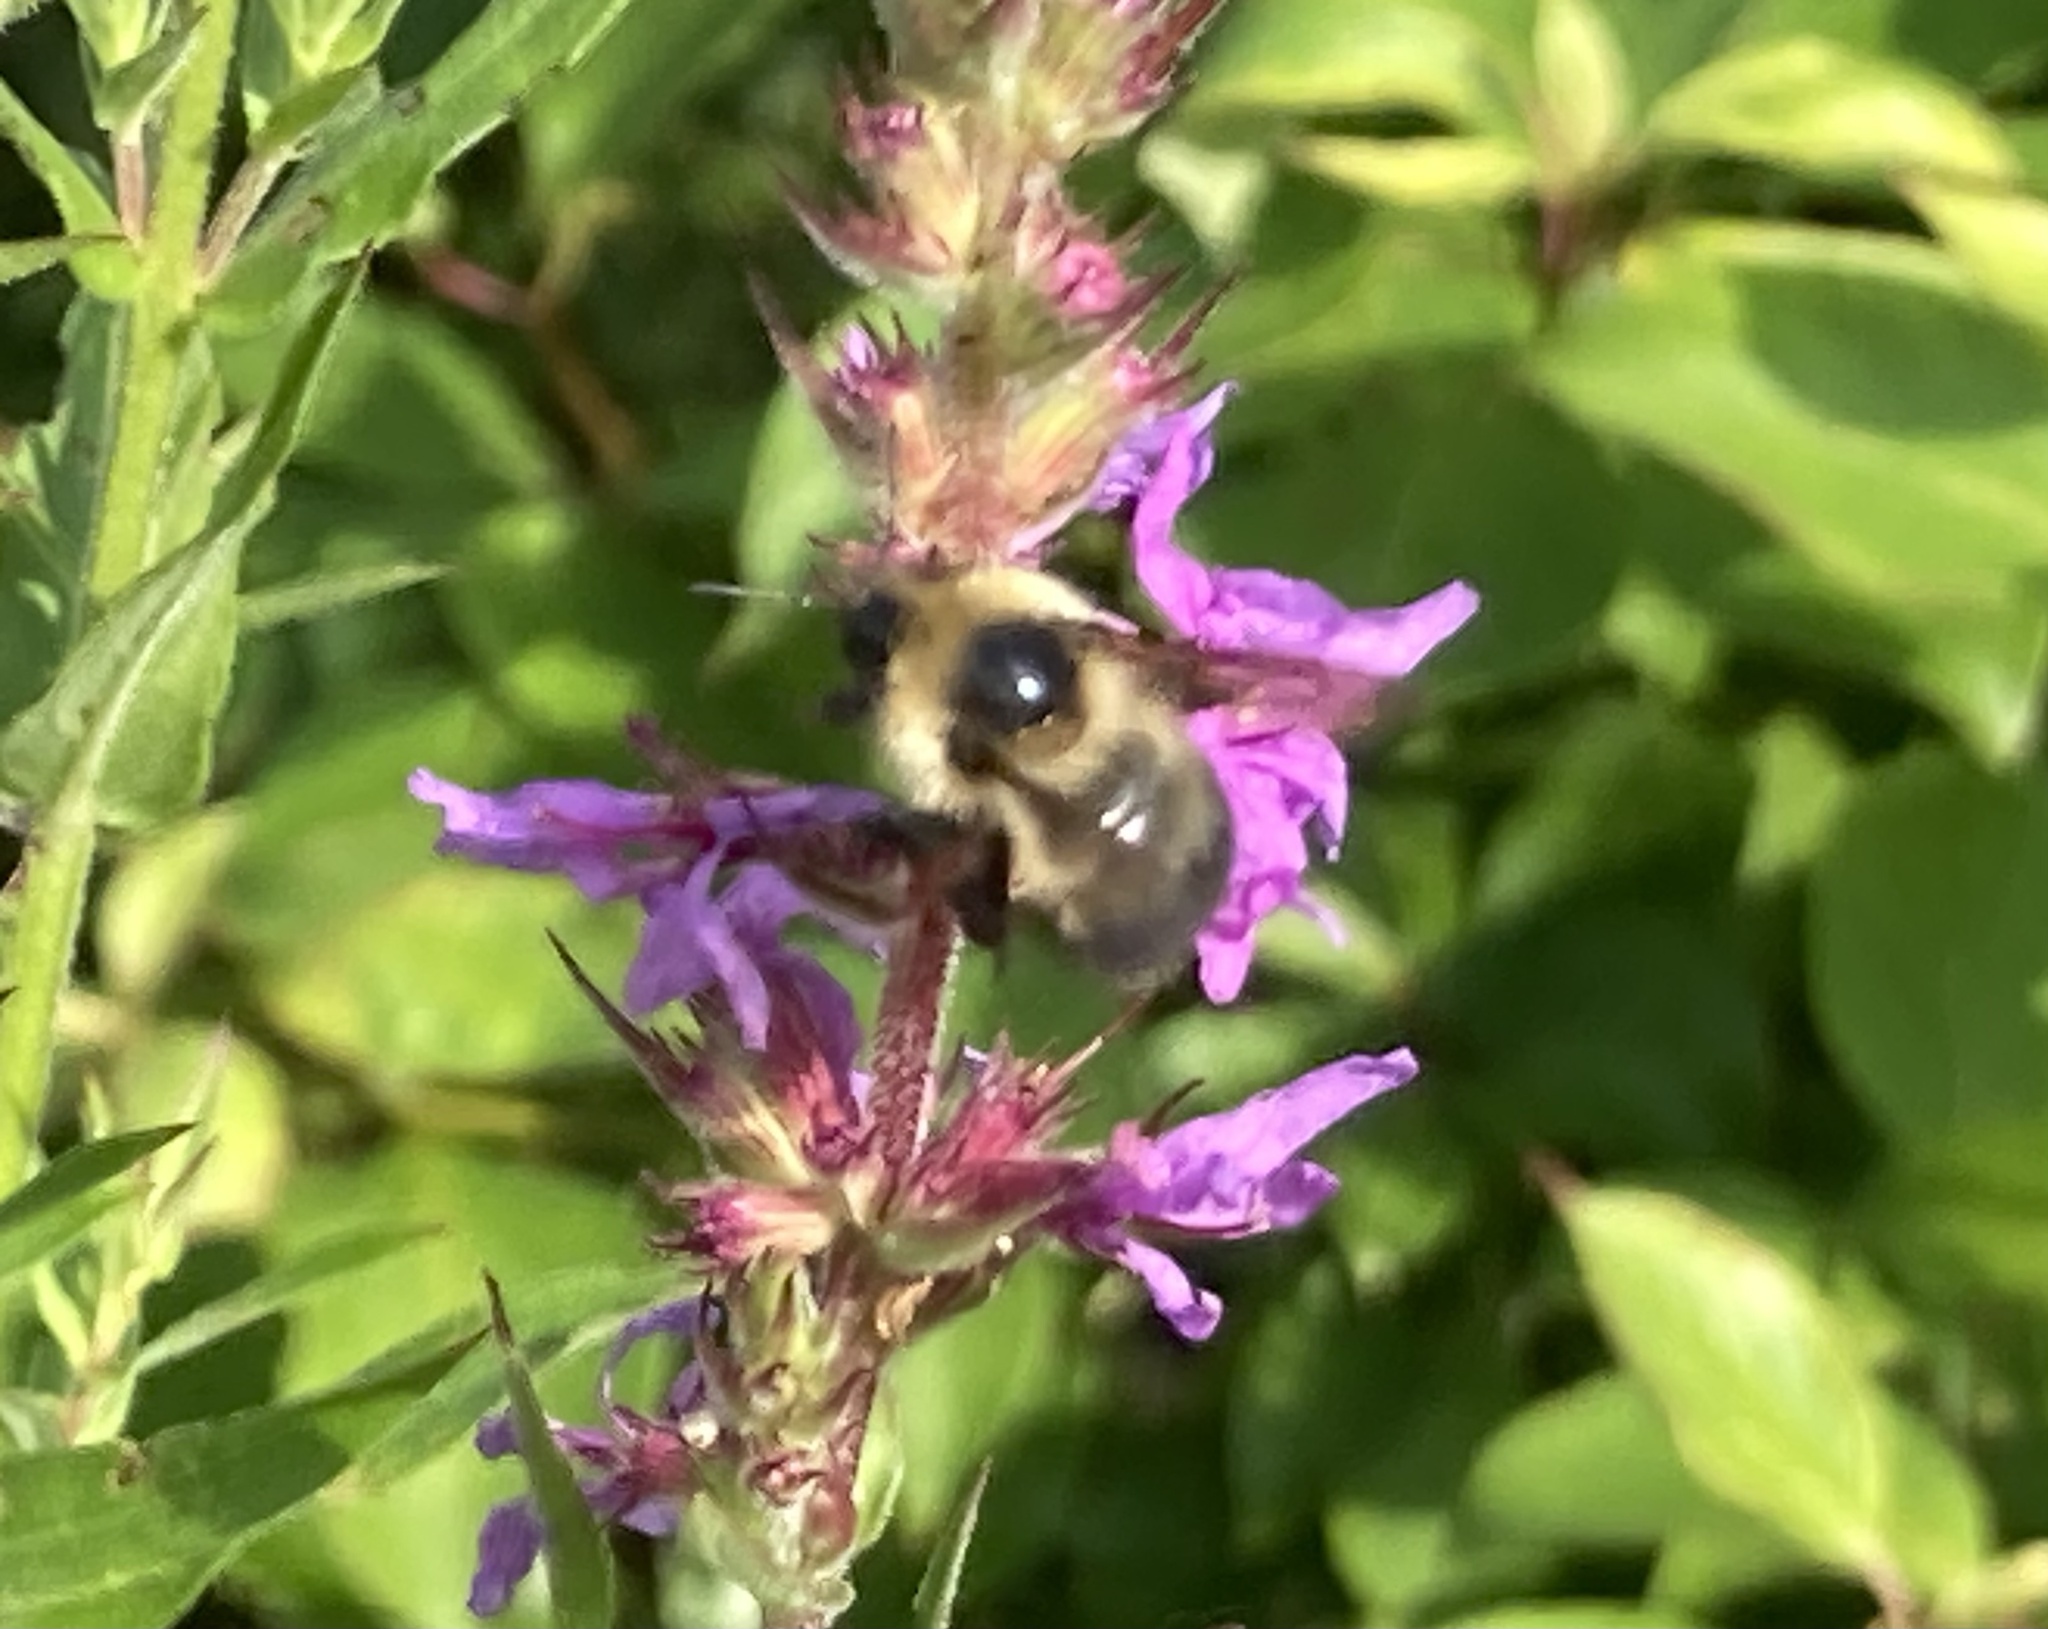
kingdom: Animalia
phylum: Arthropoda
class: Insecta
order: Hymenoptera
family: Apidae
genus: Bombus
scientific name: Bombus rufocinctus
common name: Red-belted bumble bee
